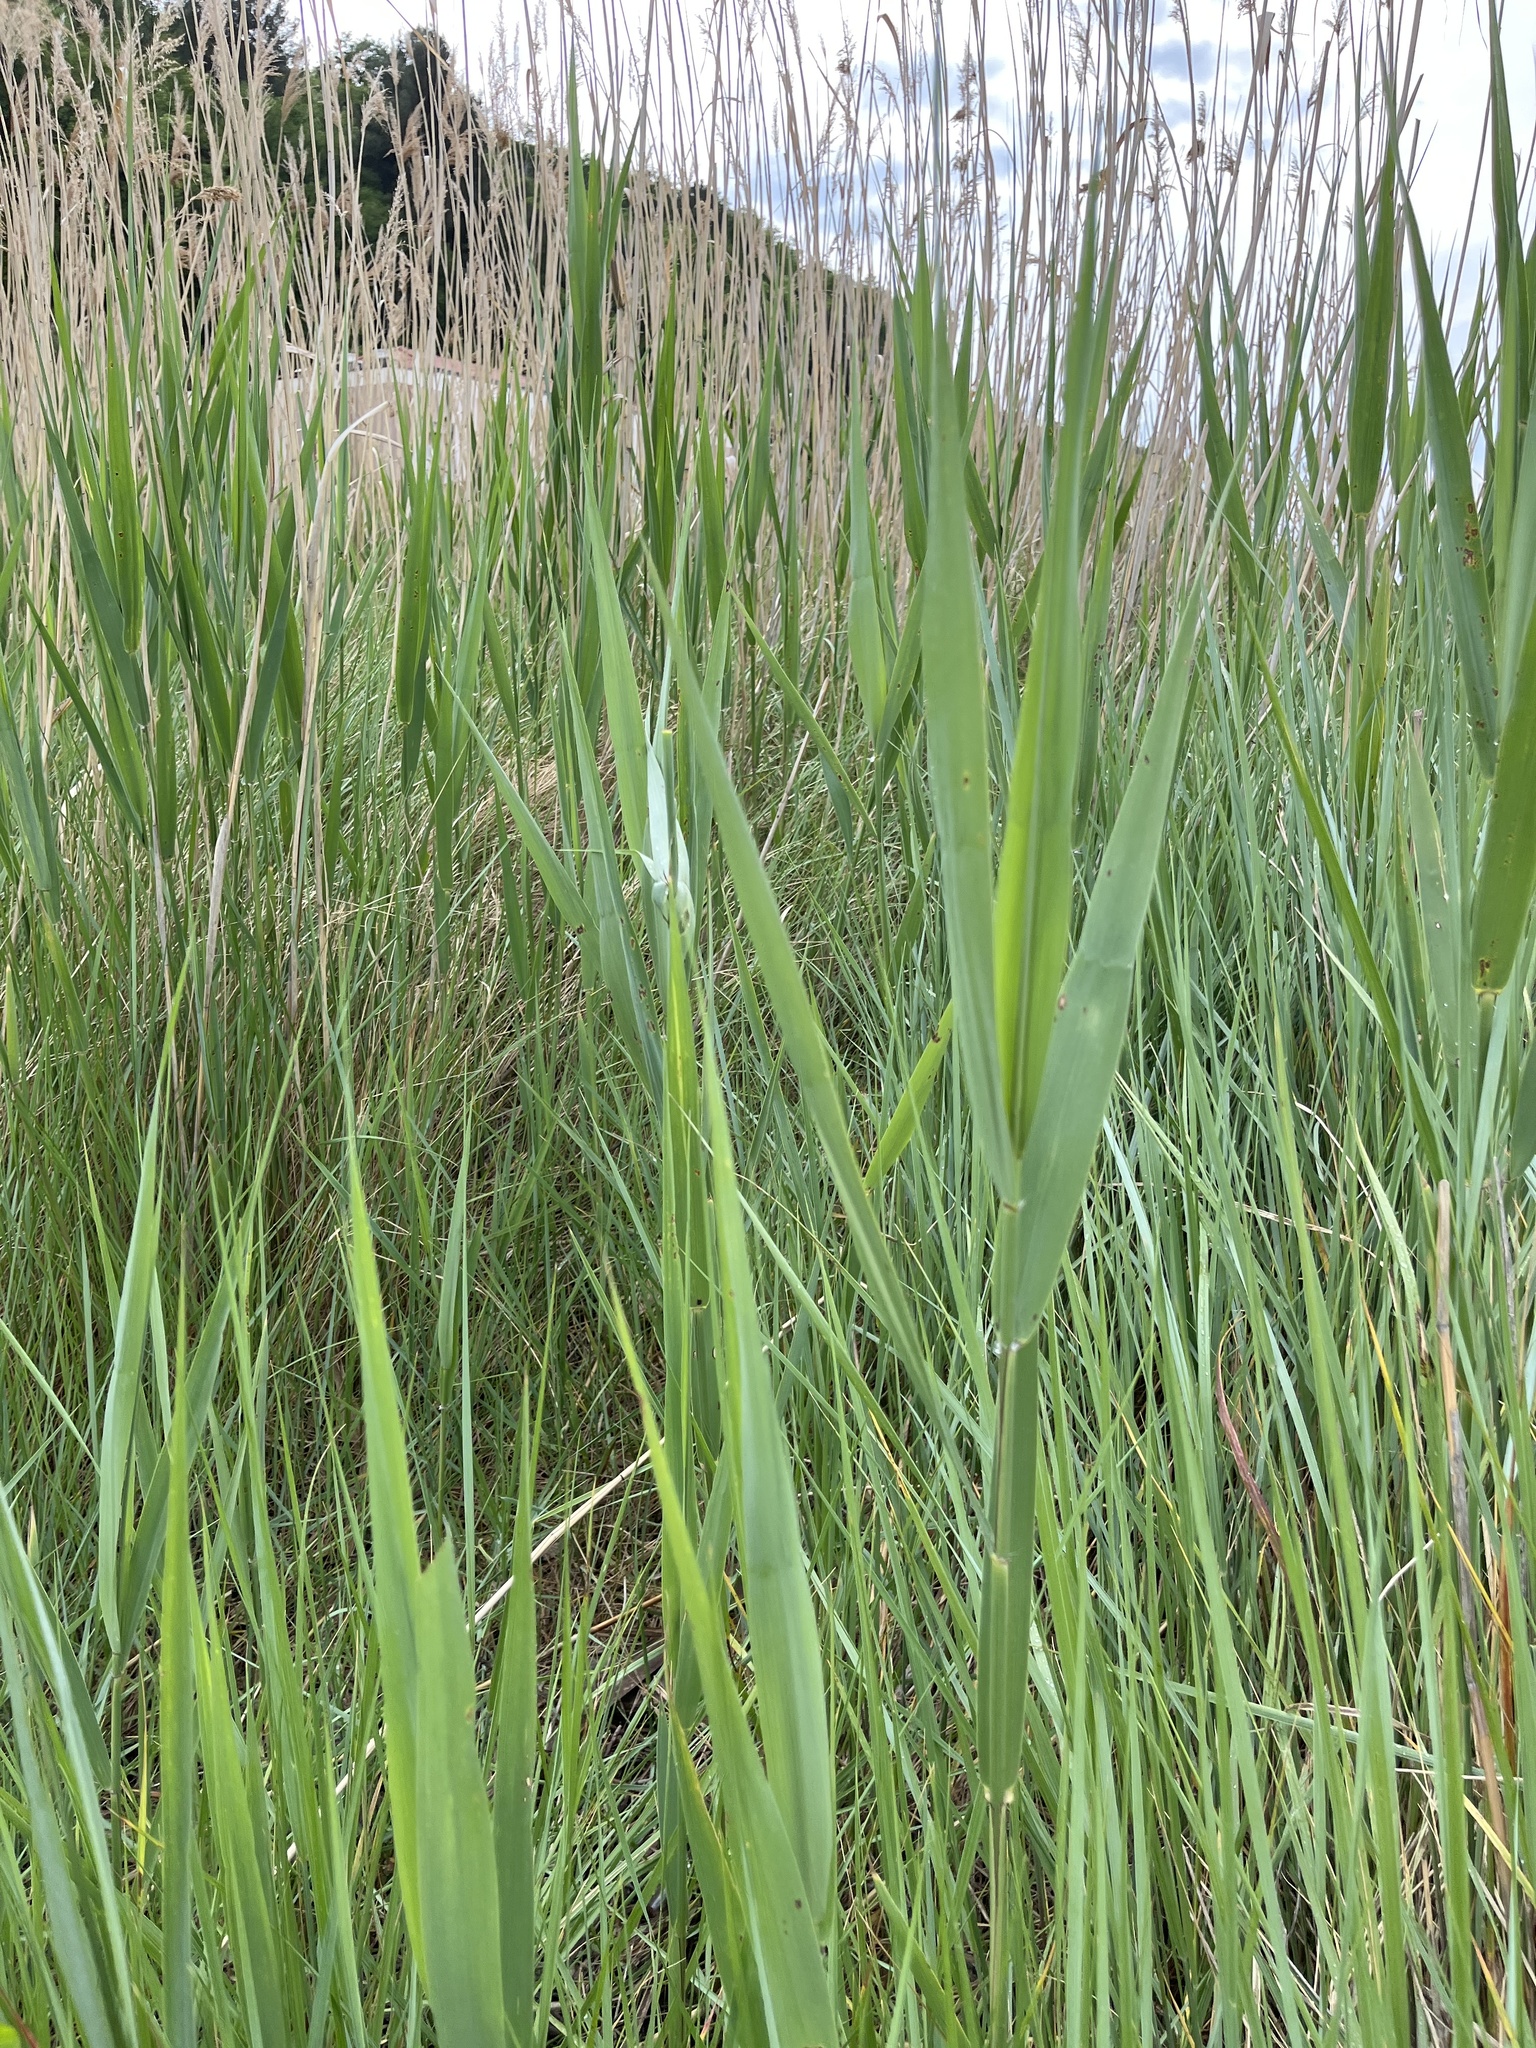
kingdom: Plantae
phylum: Tracheophyta
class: Liliopsida
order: Poales
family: Poaceae
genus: Phragmites
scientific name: Phragmites australis
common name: Common reed
